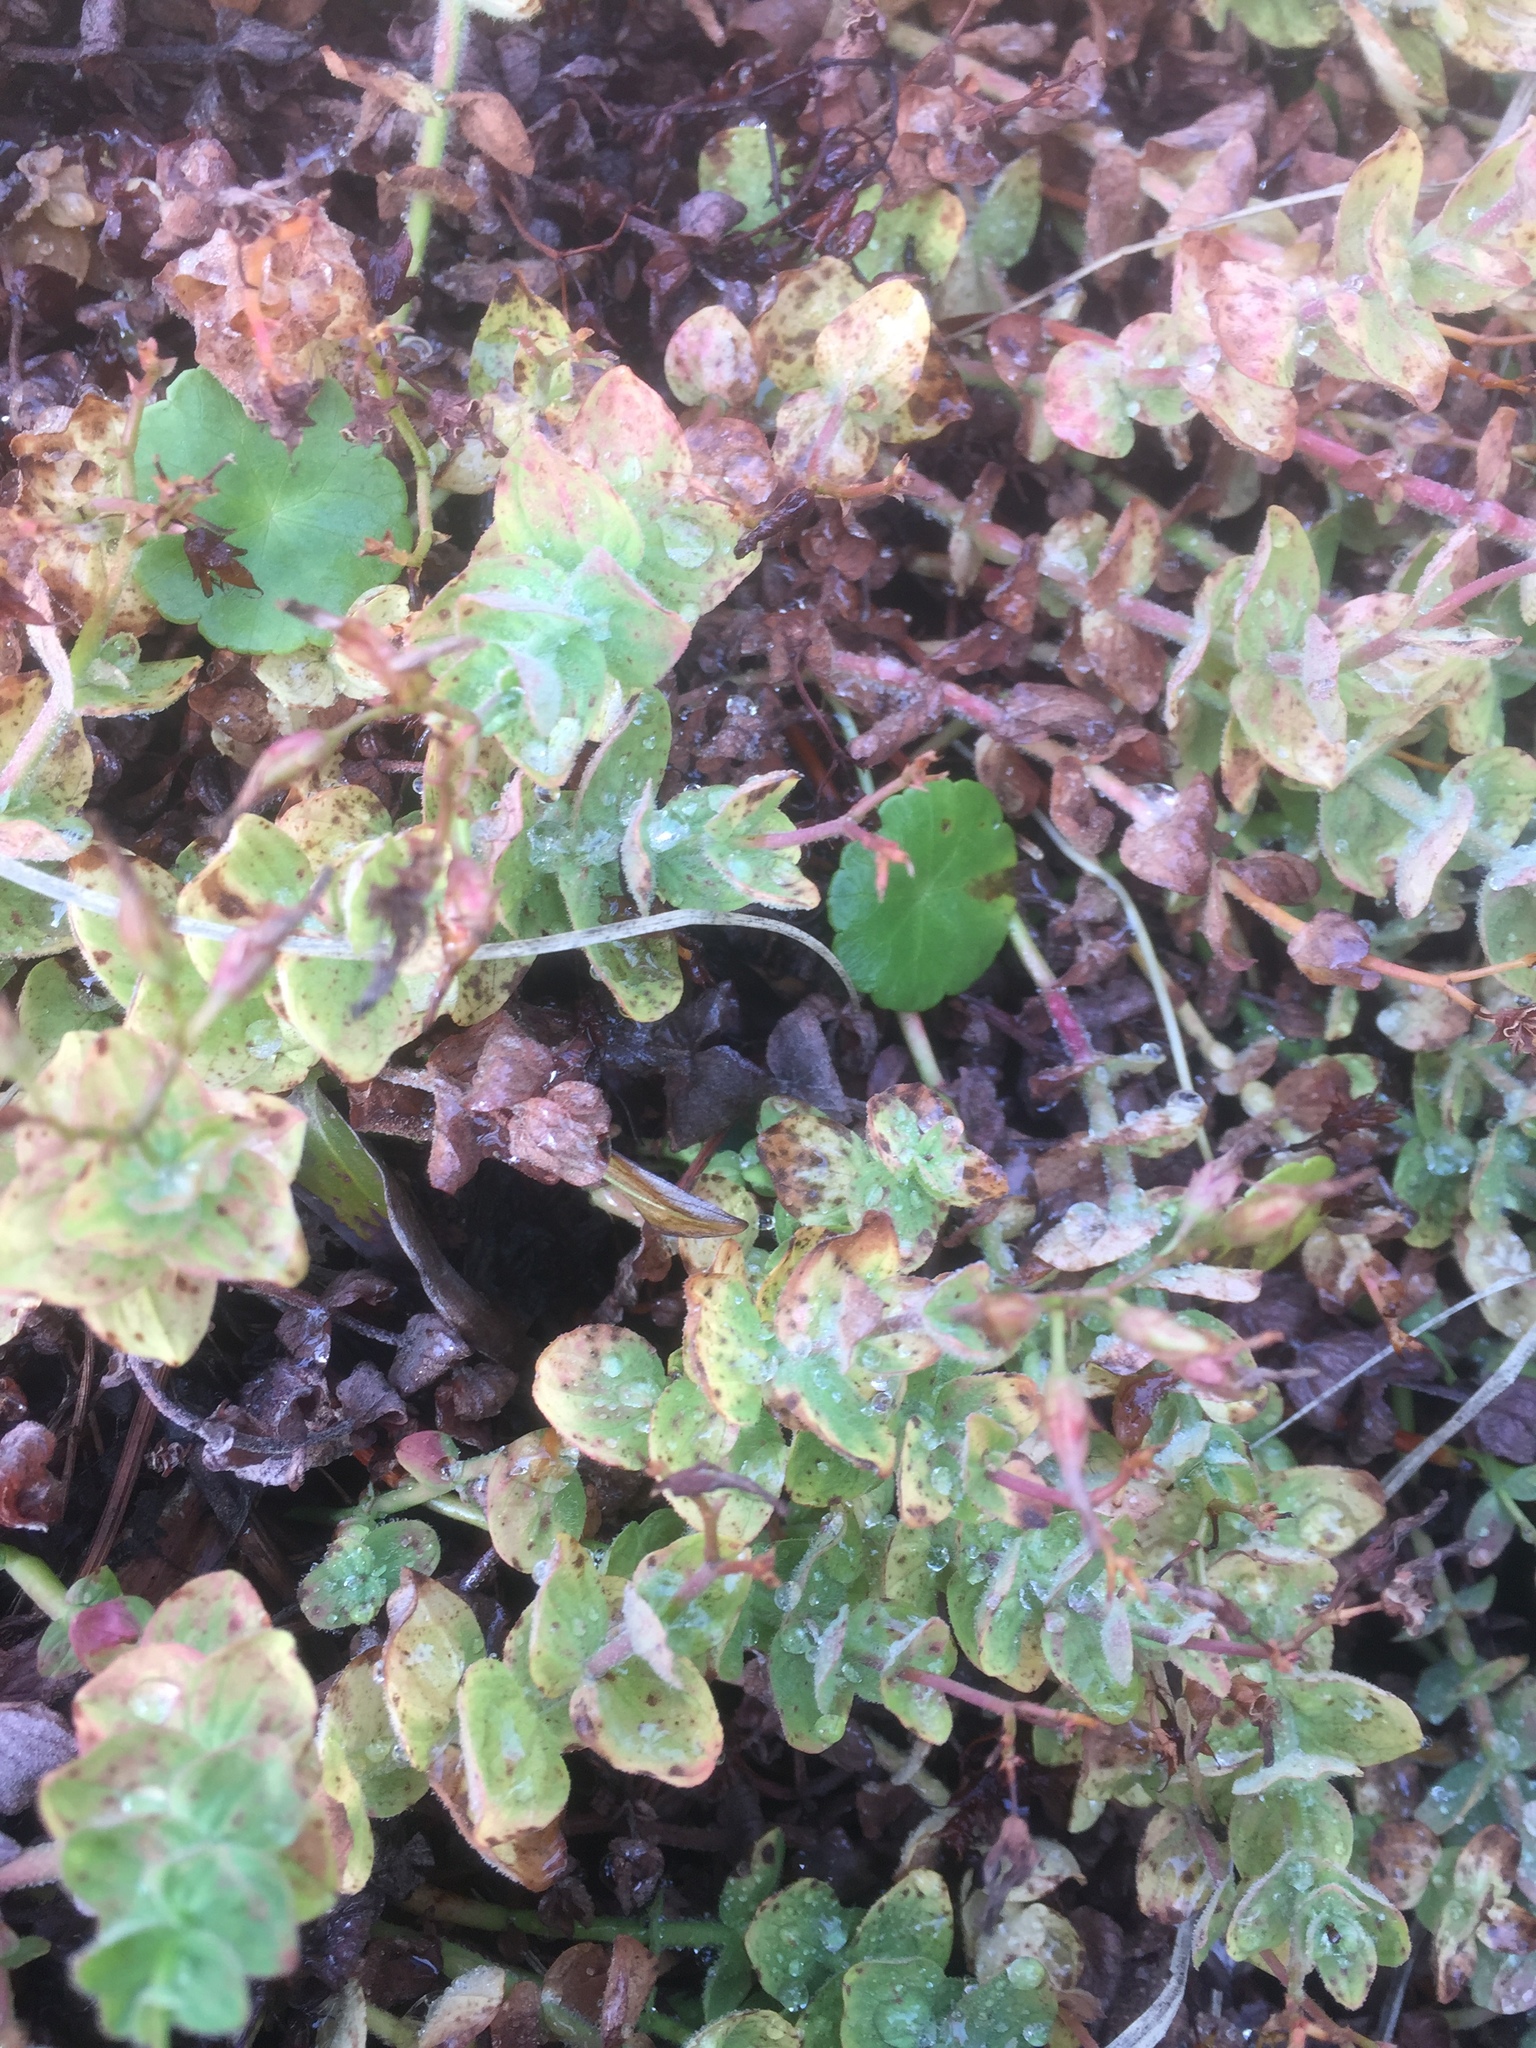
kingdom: Plantae
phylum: Tracheophyta
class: Magnoliopsida
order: Malpighiales
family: Hypericaceae
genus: Hypericum
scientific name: Hypericum elodes
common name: Marsh st. john's-wort
